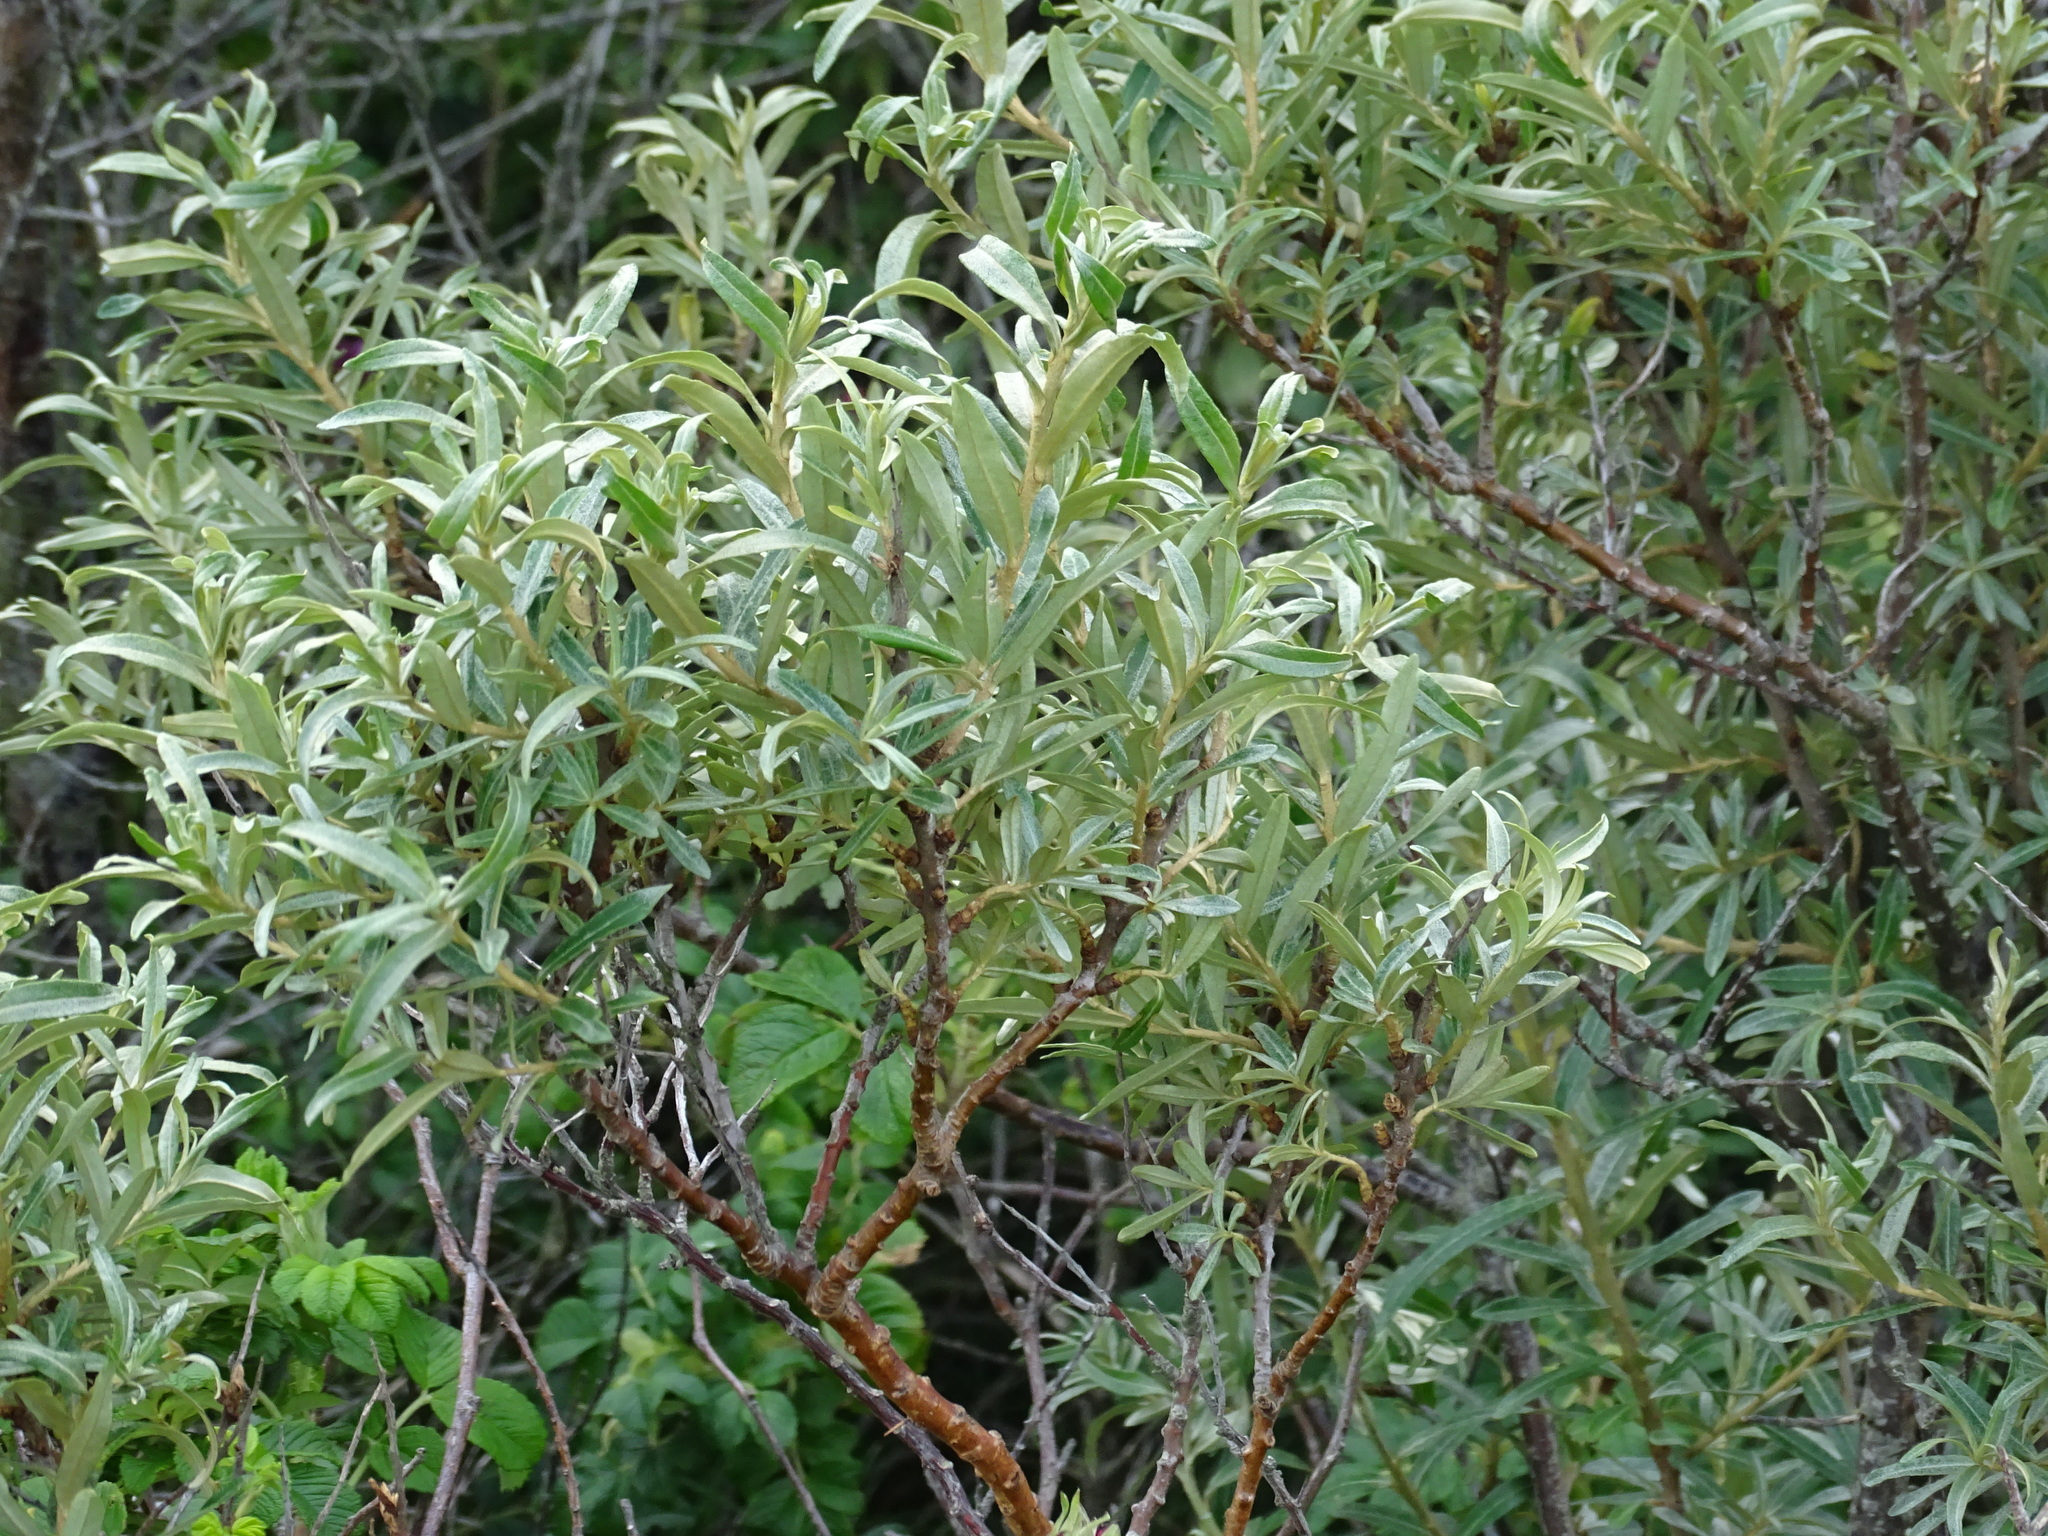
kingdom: Plantae
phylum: Tracheophyta
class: Magnoliopsida
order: Rosales
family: Elaeagnaceae
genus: Hippophae
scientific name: Hippophae rhamnoides
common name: Sea-buckthorn
